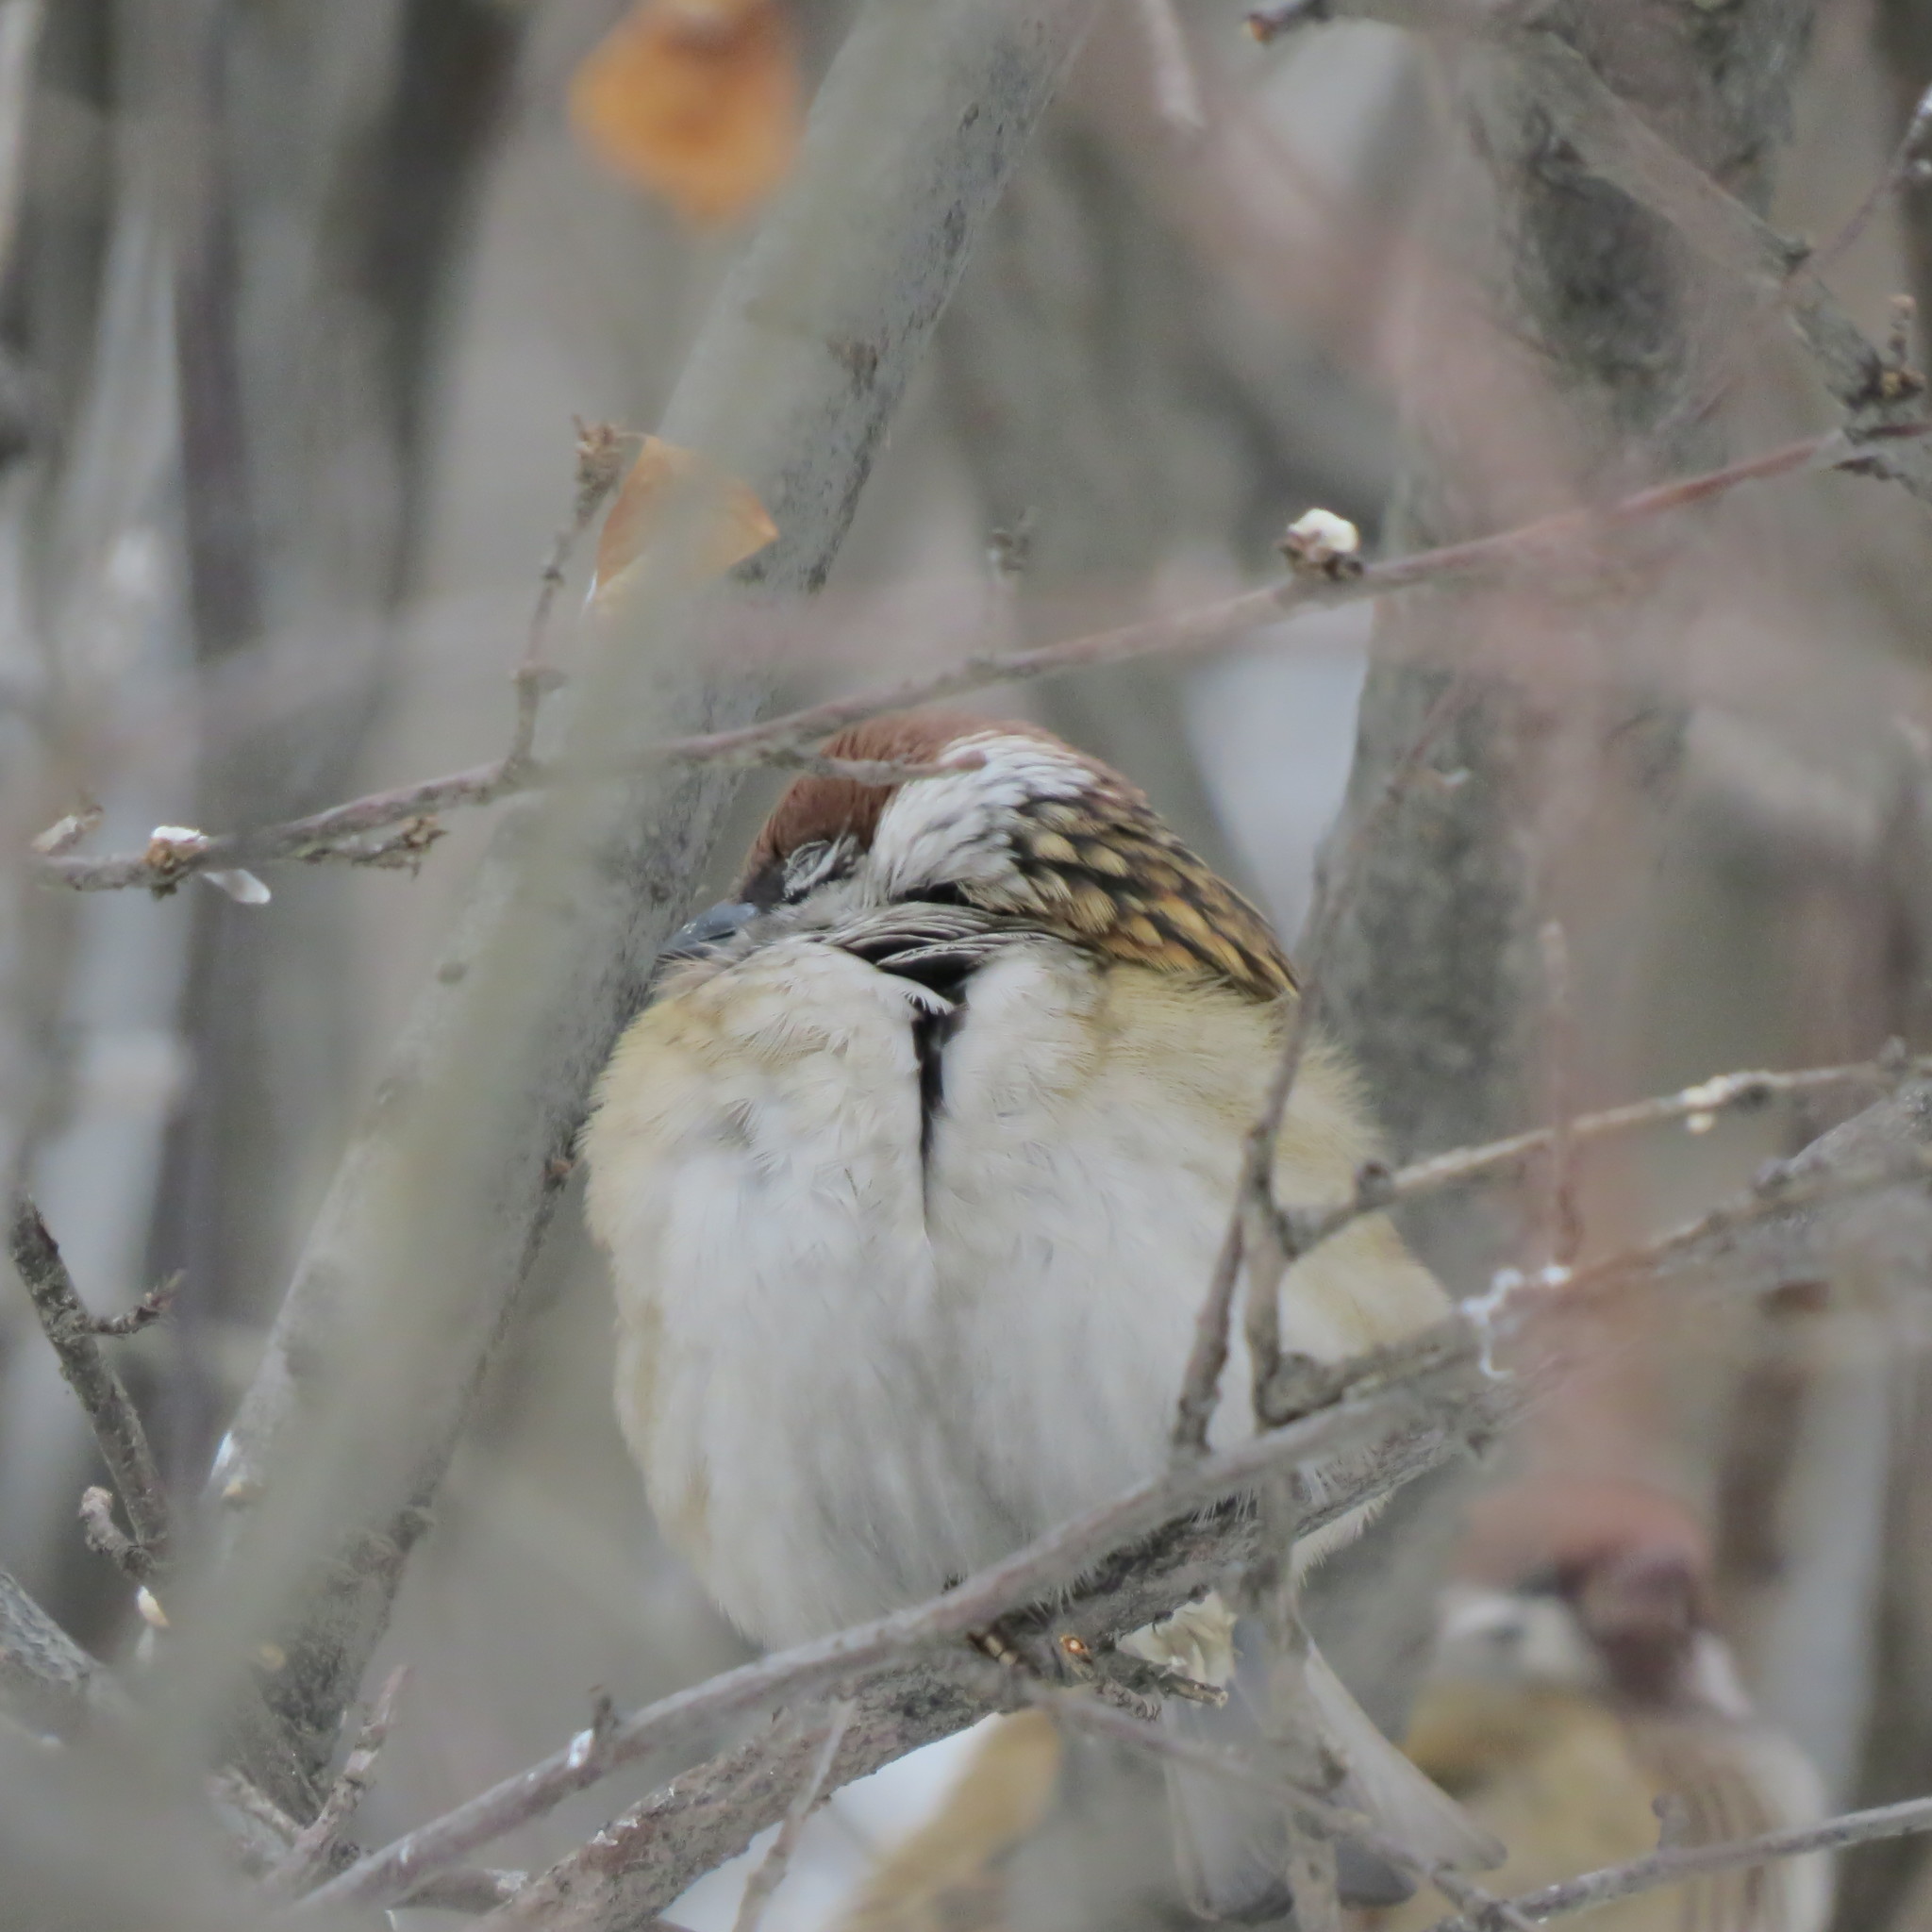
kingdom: Animalia
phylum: Chordata
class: Aves
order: Passeriformes
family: Passeridae
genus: Passer
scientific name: Passer montanus
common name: Eurasian tree sparrow
